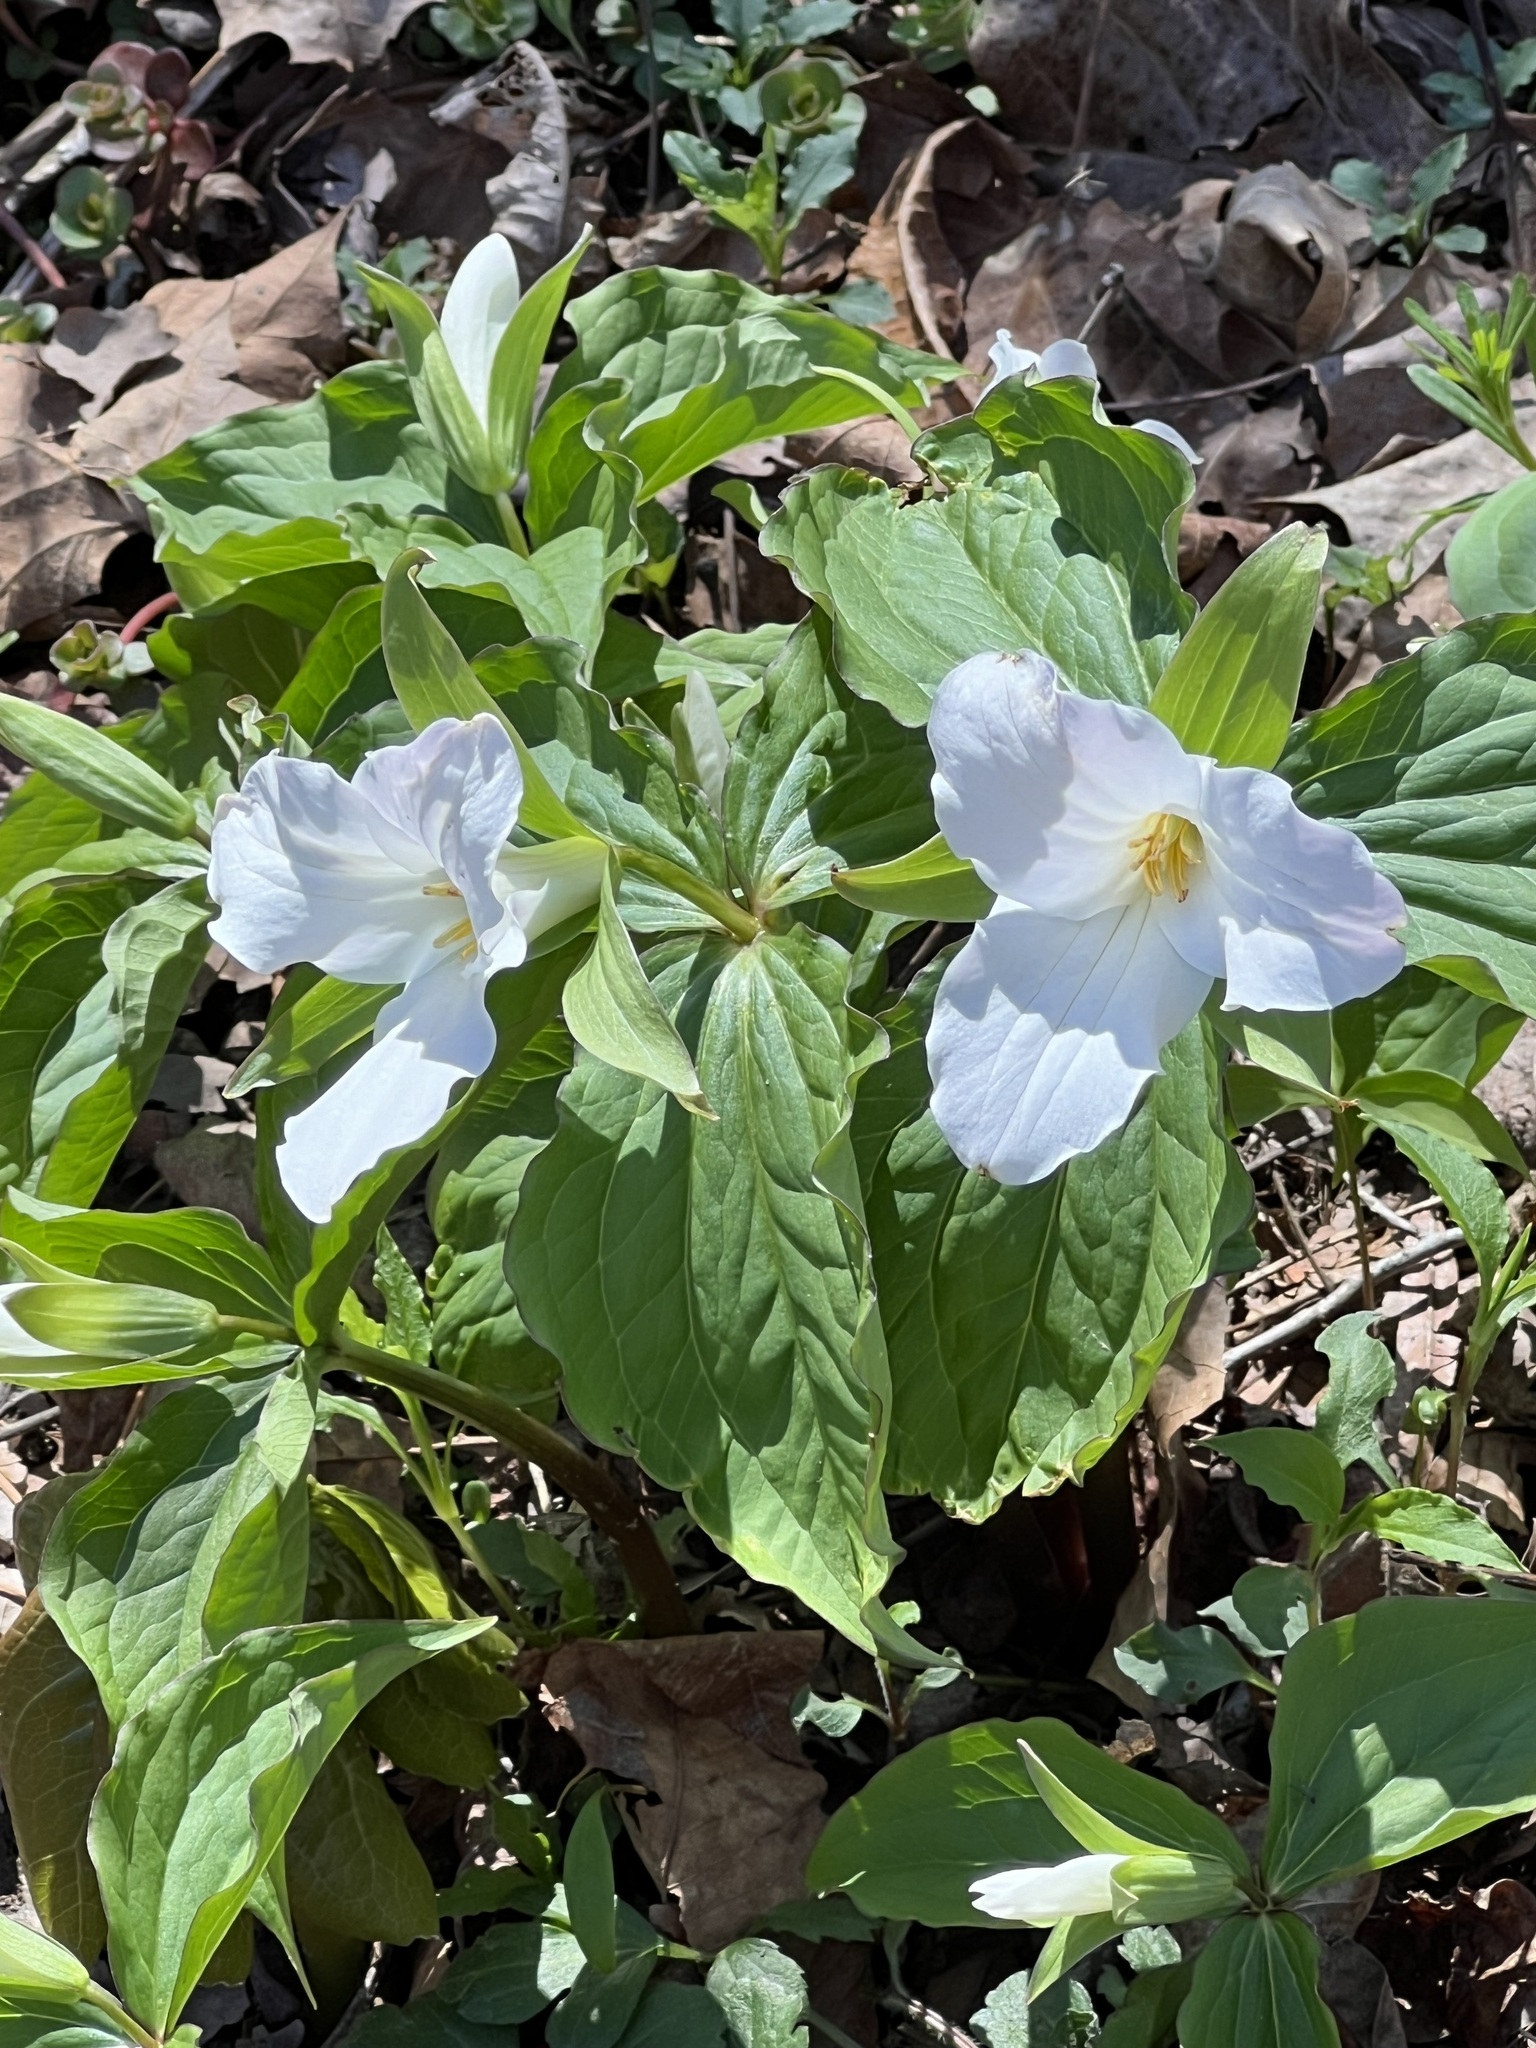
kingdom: Plantae
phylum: Tracheophyta
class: Liliopsida
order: Liliales
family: Melanthiaceae
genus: Trillium
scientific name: Trillium grandiflorum
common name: Great white trillium
